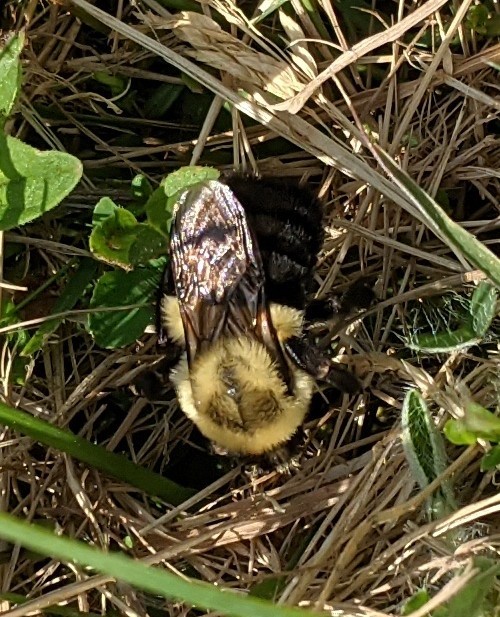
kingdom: Animalia
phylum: Arthropoda
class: Insecta
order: Hymenoptera
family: Apidae
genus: Bombus
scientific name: Bombus impatiens
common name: Common eastern bumble bee
